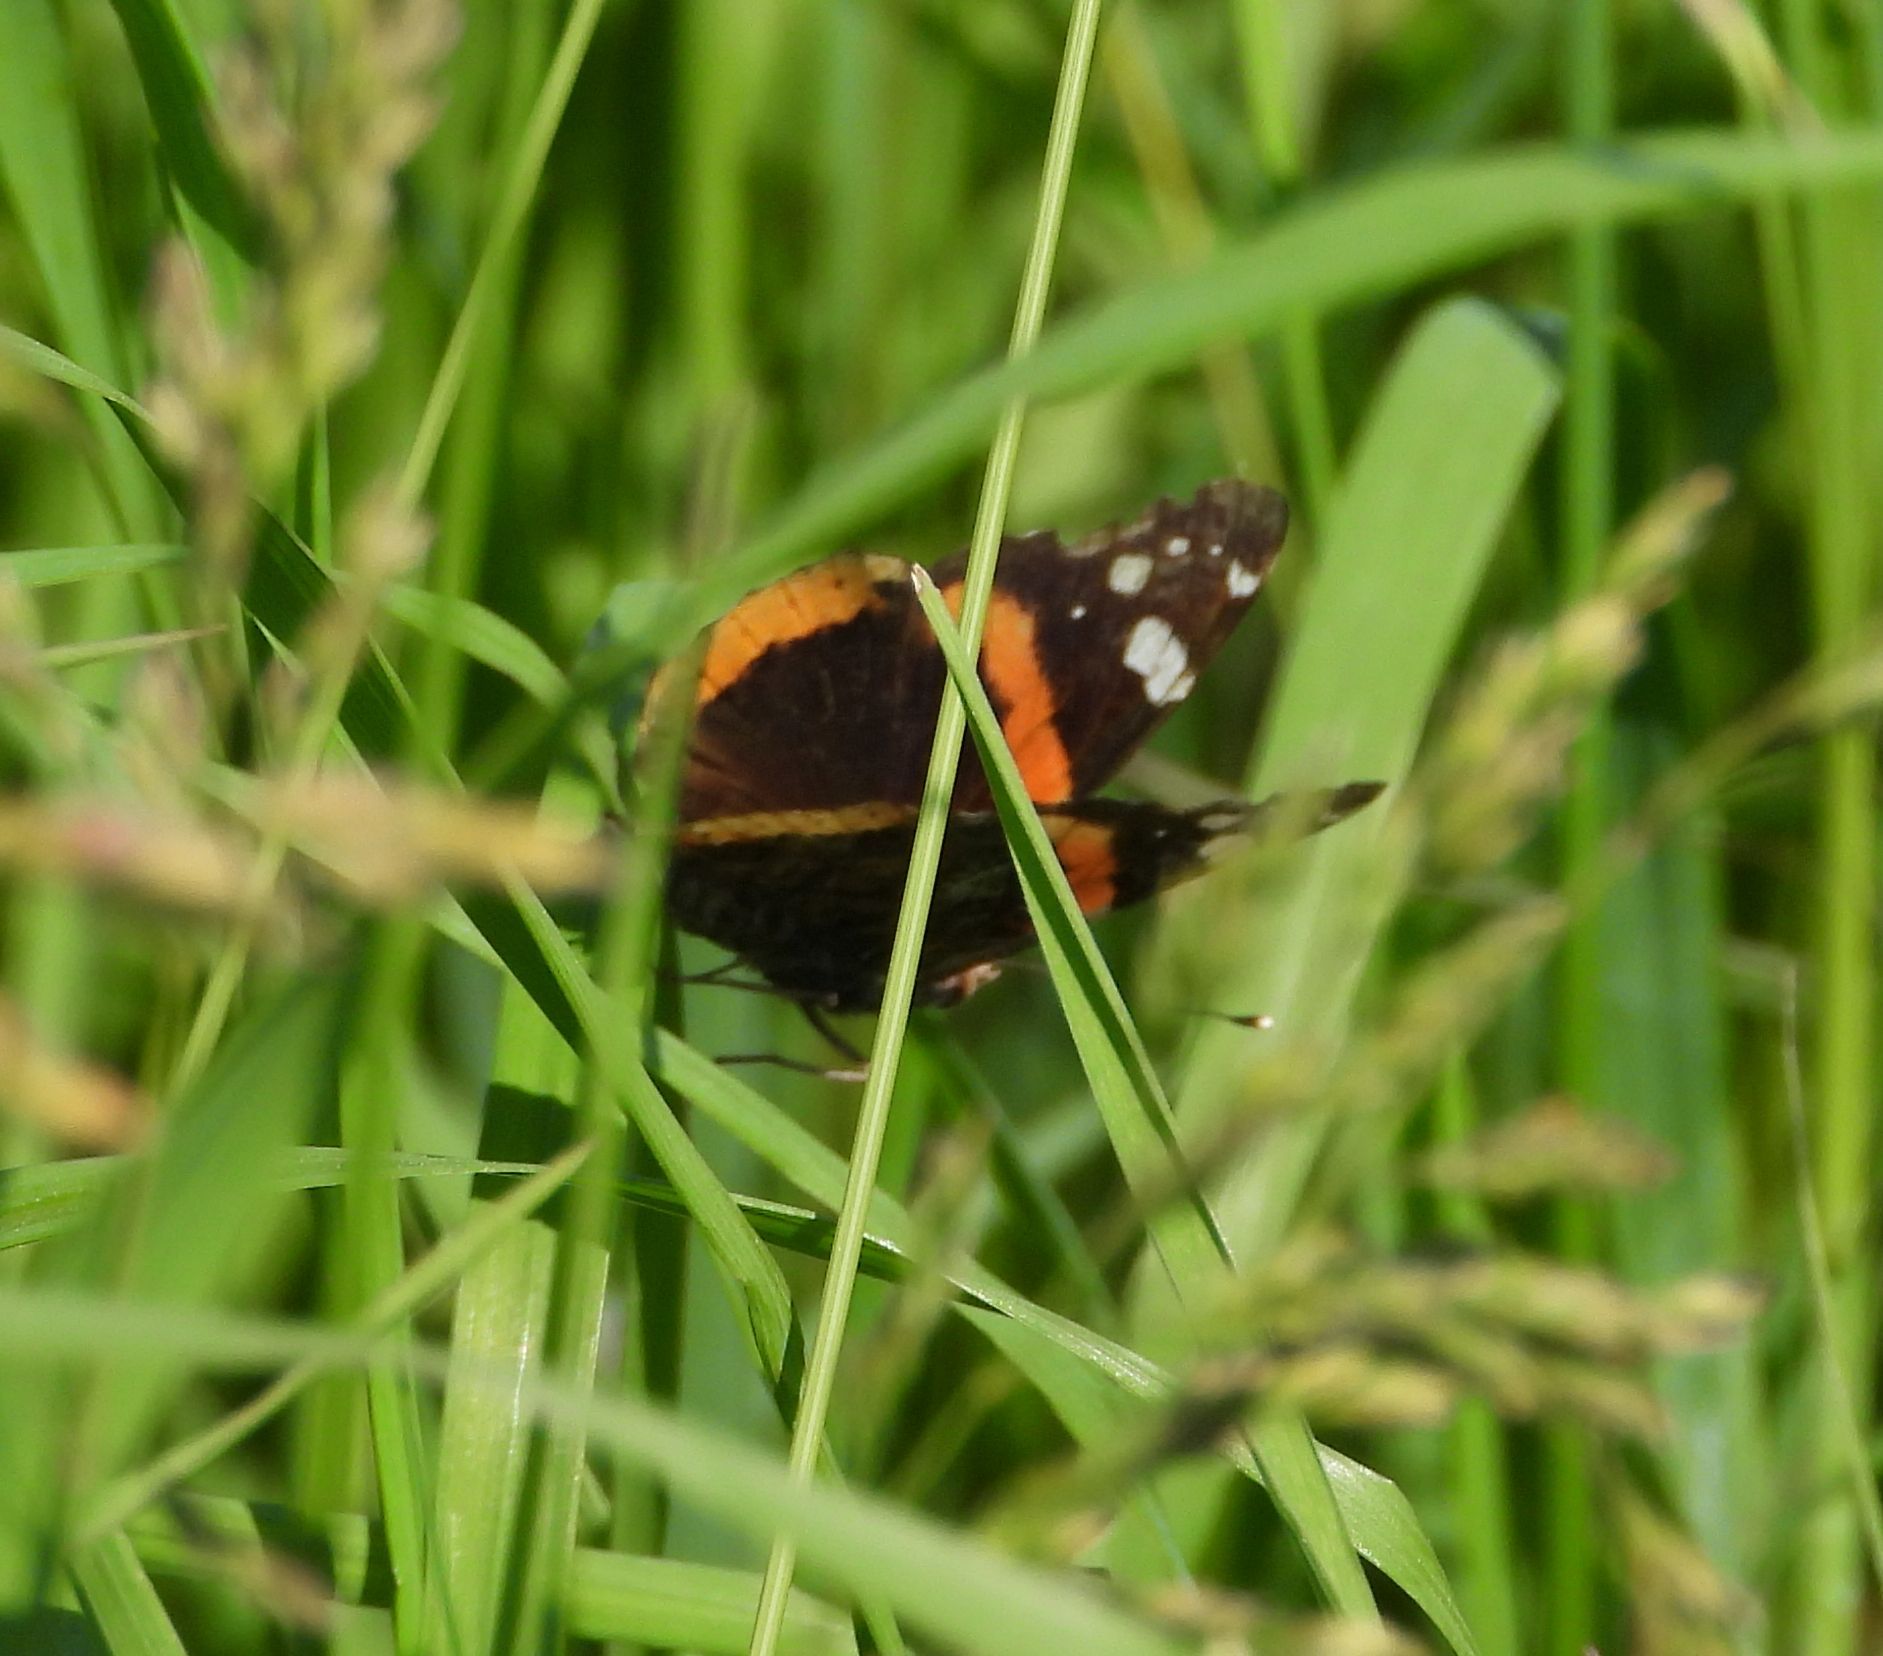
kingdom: Animalia
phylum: Arthropoda
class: Insecta
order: Lepidoptera
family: Nymphalidae
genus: Vanessa
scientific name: Vanessa atalanta
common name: Red admiral
